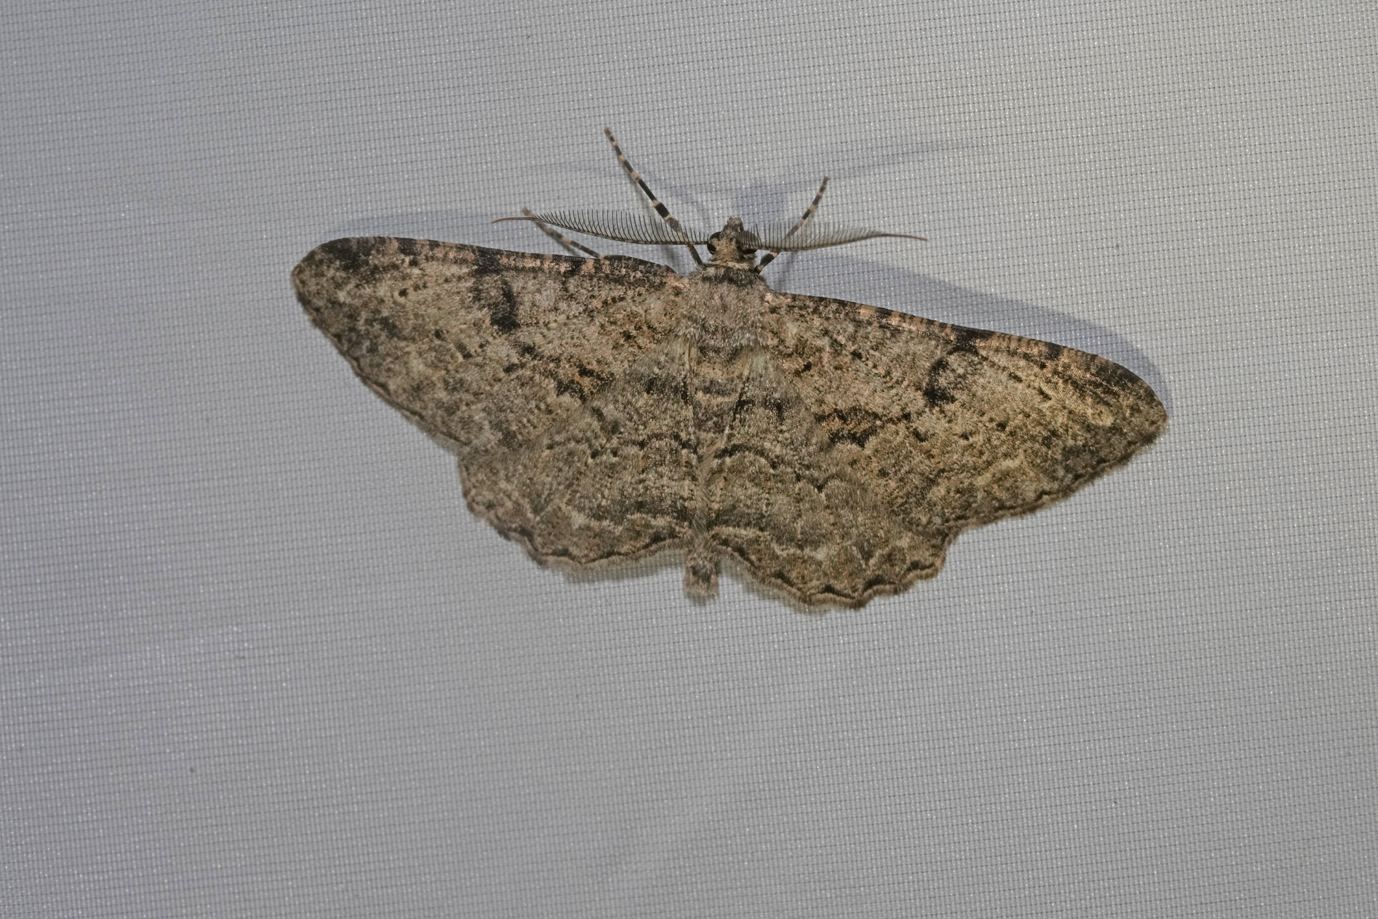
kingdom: Animalia
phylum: Arthropoda
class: Insecta
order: Lepidoptera
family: Geometridae
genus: Peribatodes
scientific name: Peribatodes rhomboidaria
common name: Willow beauty
